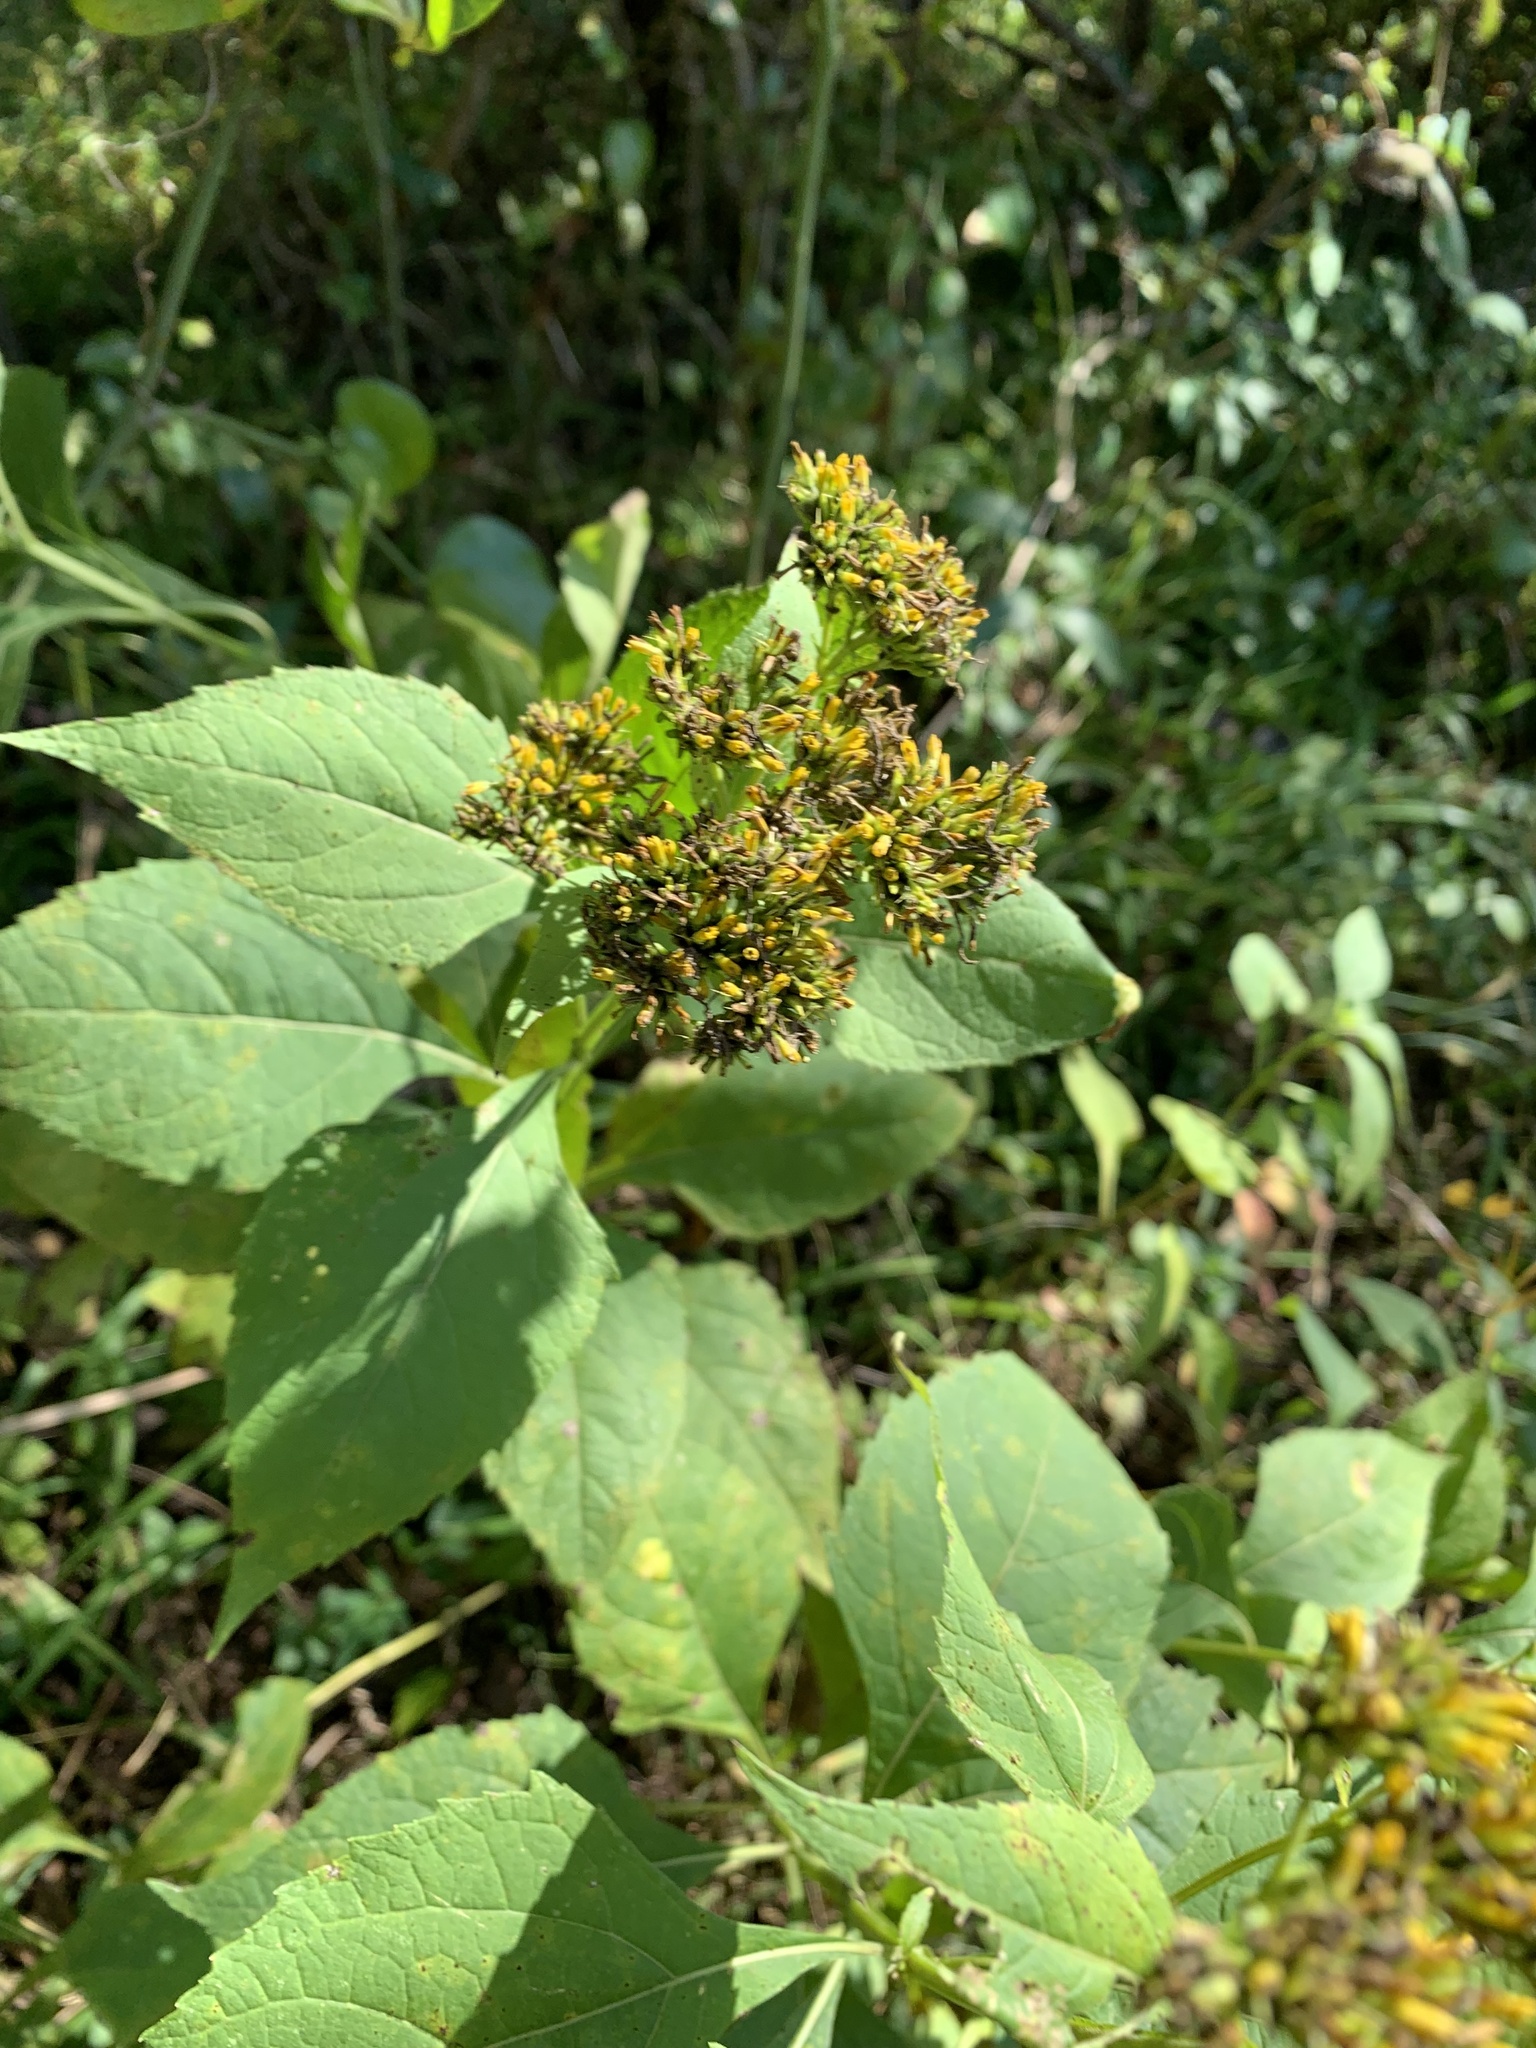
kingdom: Plantae
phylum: Tracheophyta
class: Magnoliopsida
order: Asterales
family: Asteraceae
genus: Verbesina
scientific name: Verbesina occidentalis
